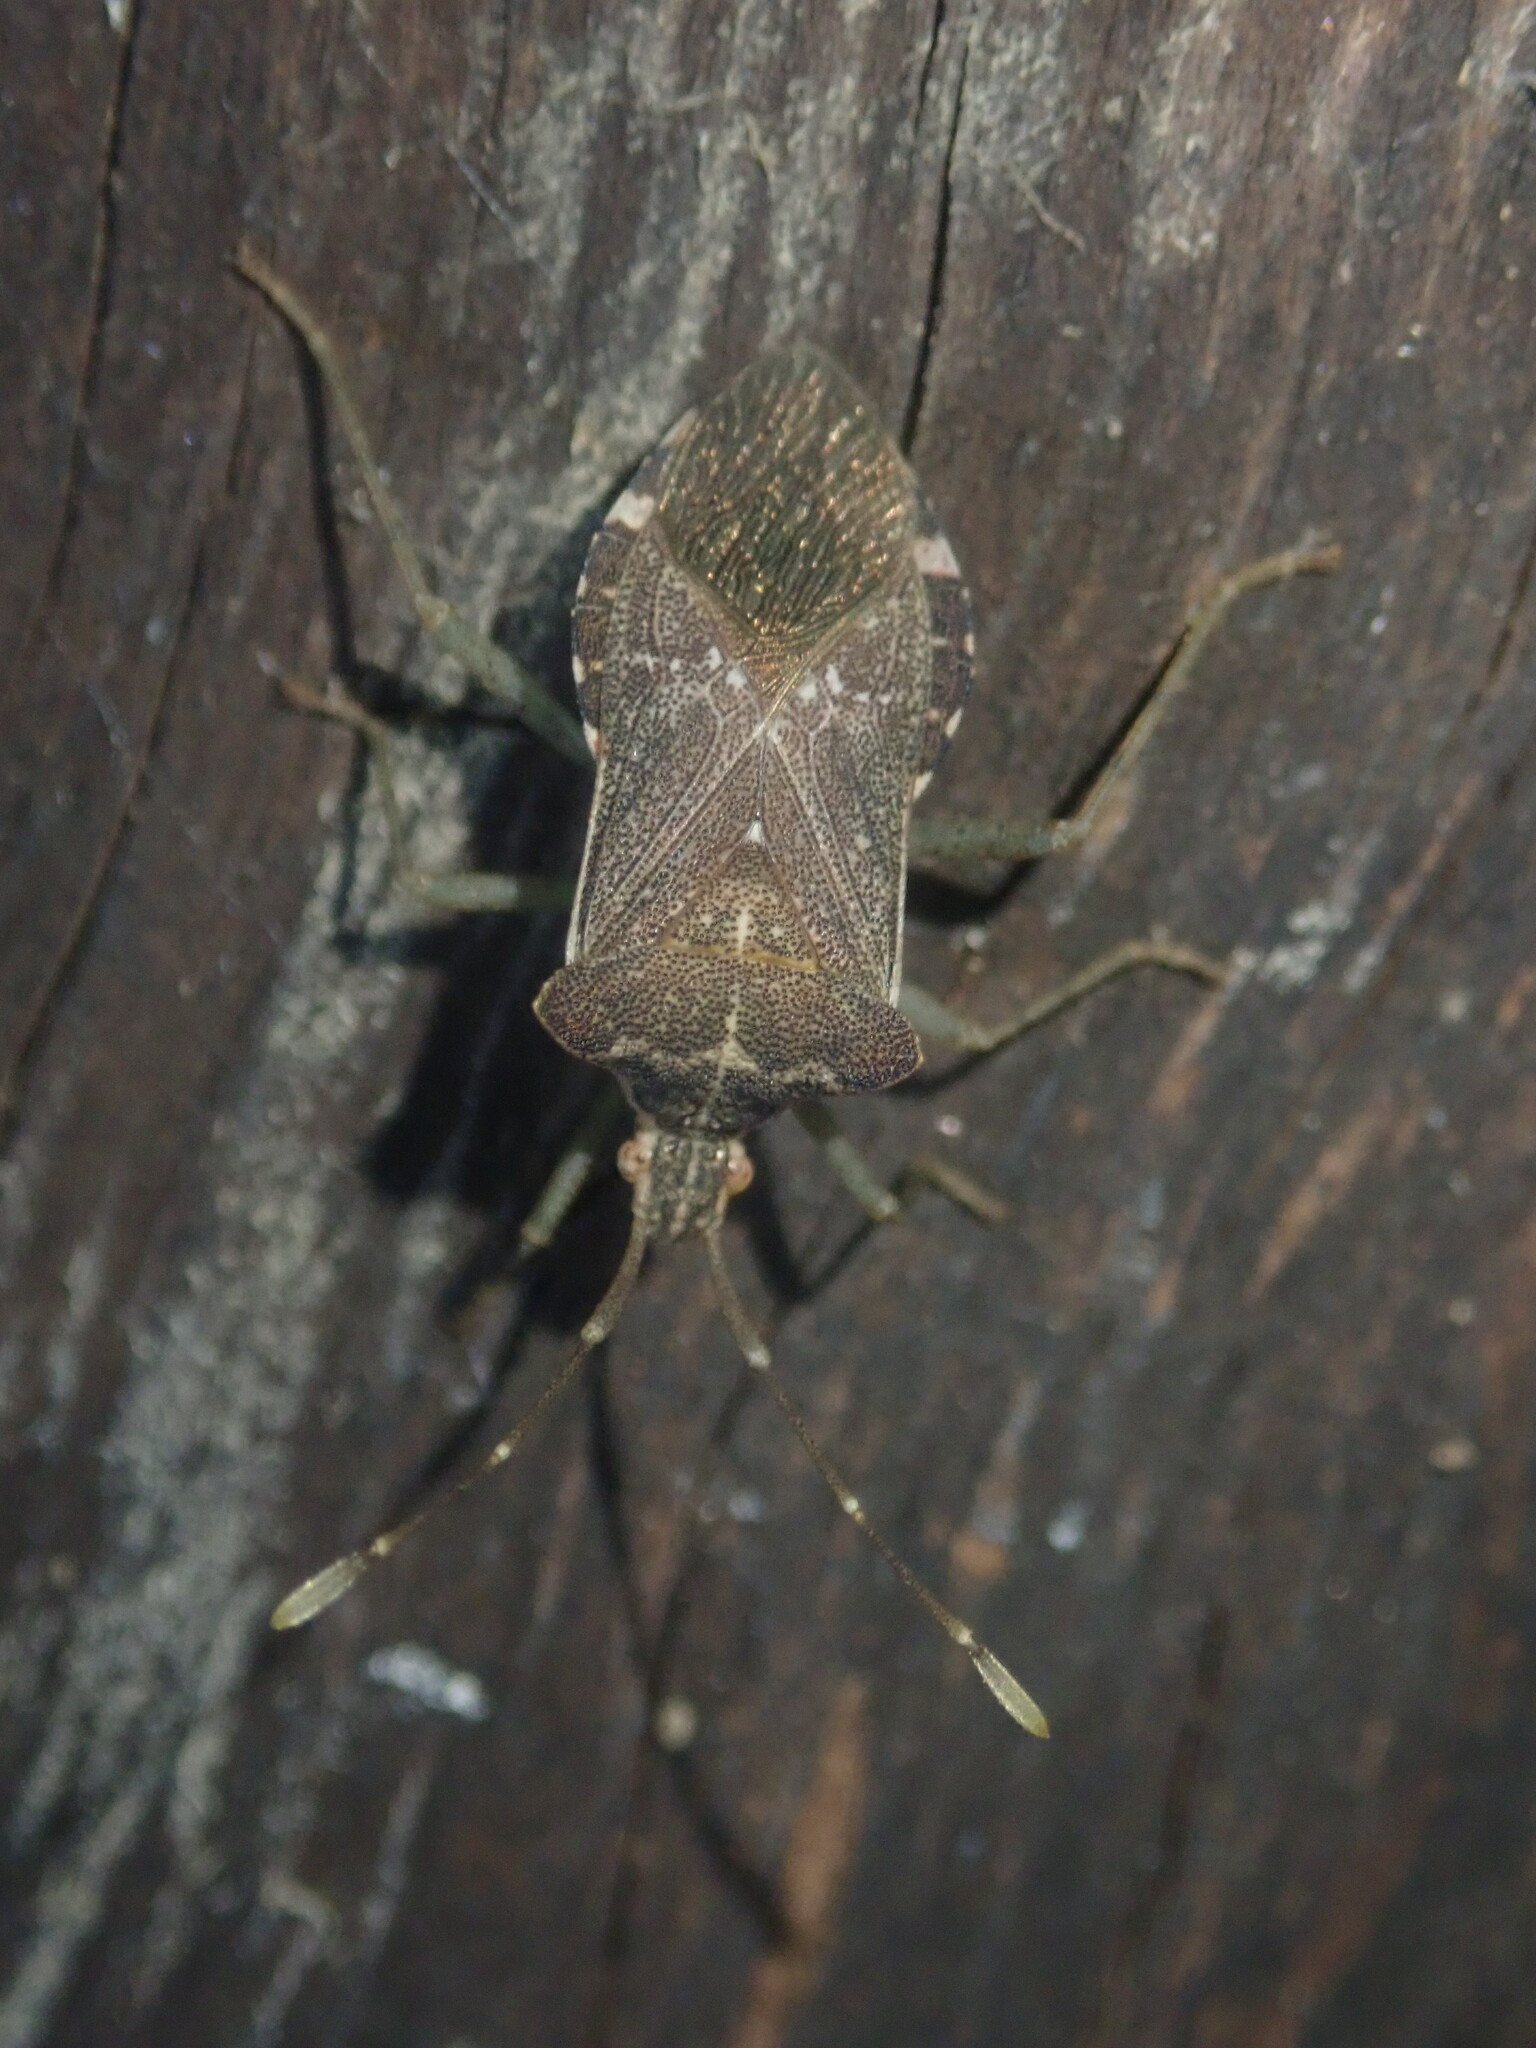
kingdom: Animalia
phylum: Arthropoda
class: Insecta
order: Hemiptera
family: Coreidae
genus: Cletomorpha
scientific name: Cletomorpha nyasana
